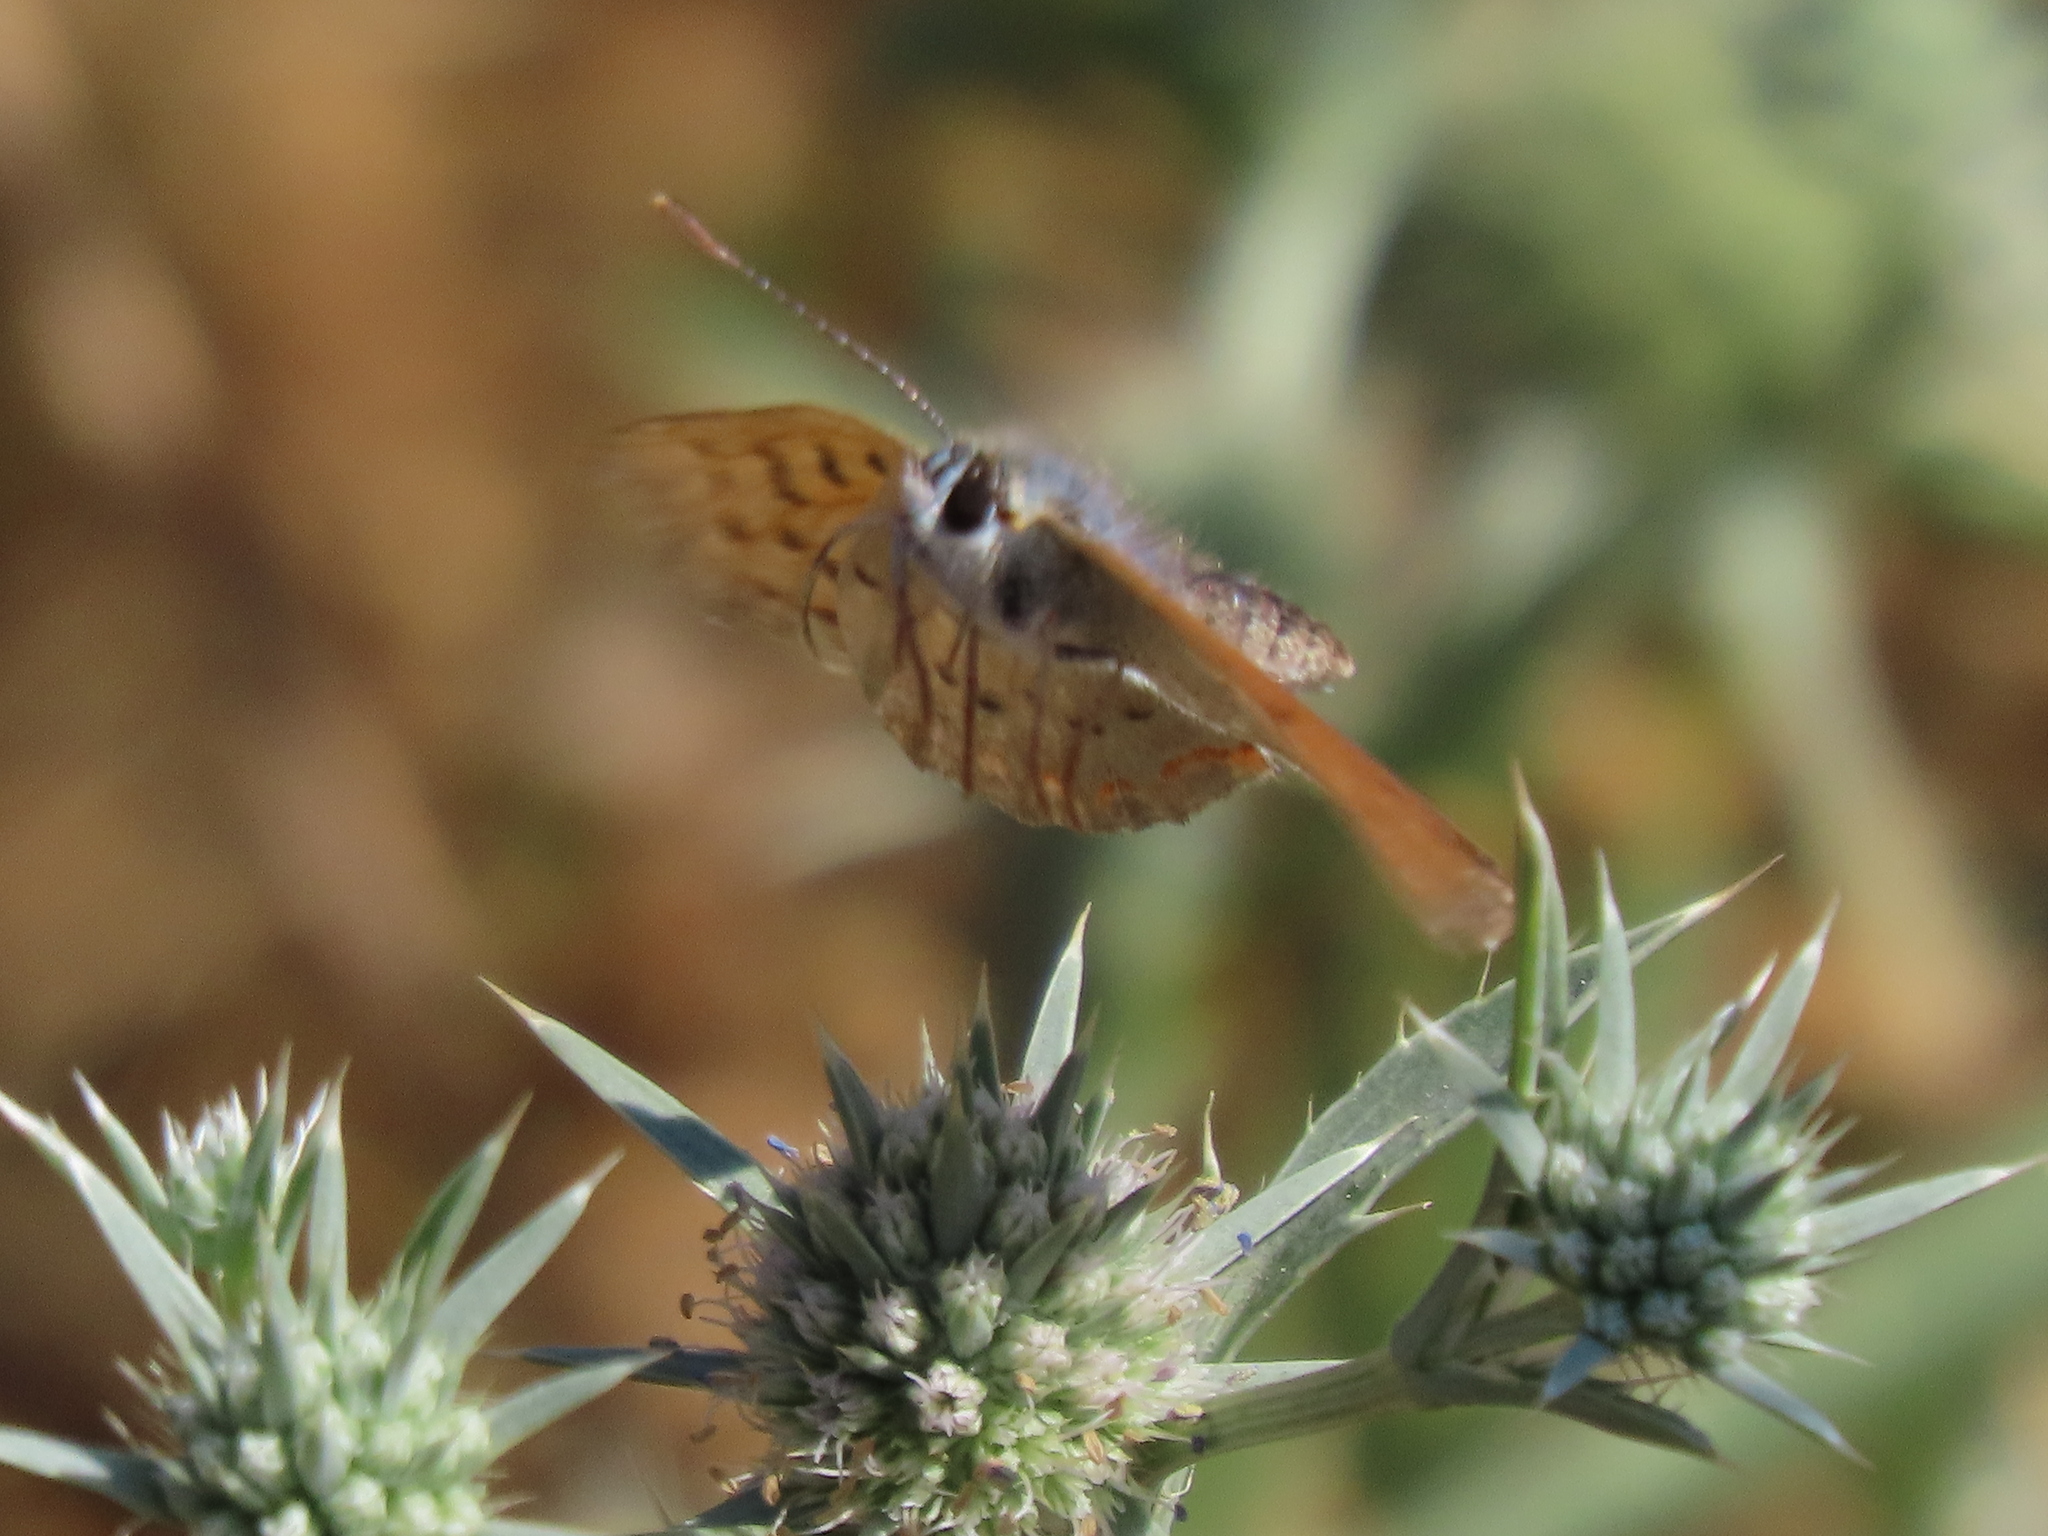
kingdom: Animalia
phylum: Arthropoda
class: Insecta
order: Lepidoptera
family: Lycaenidae
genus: Tharsalea
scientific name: Tharsalea helloides
